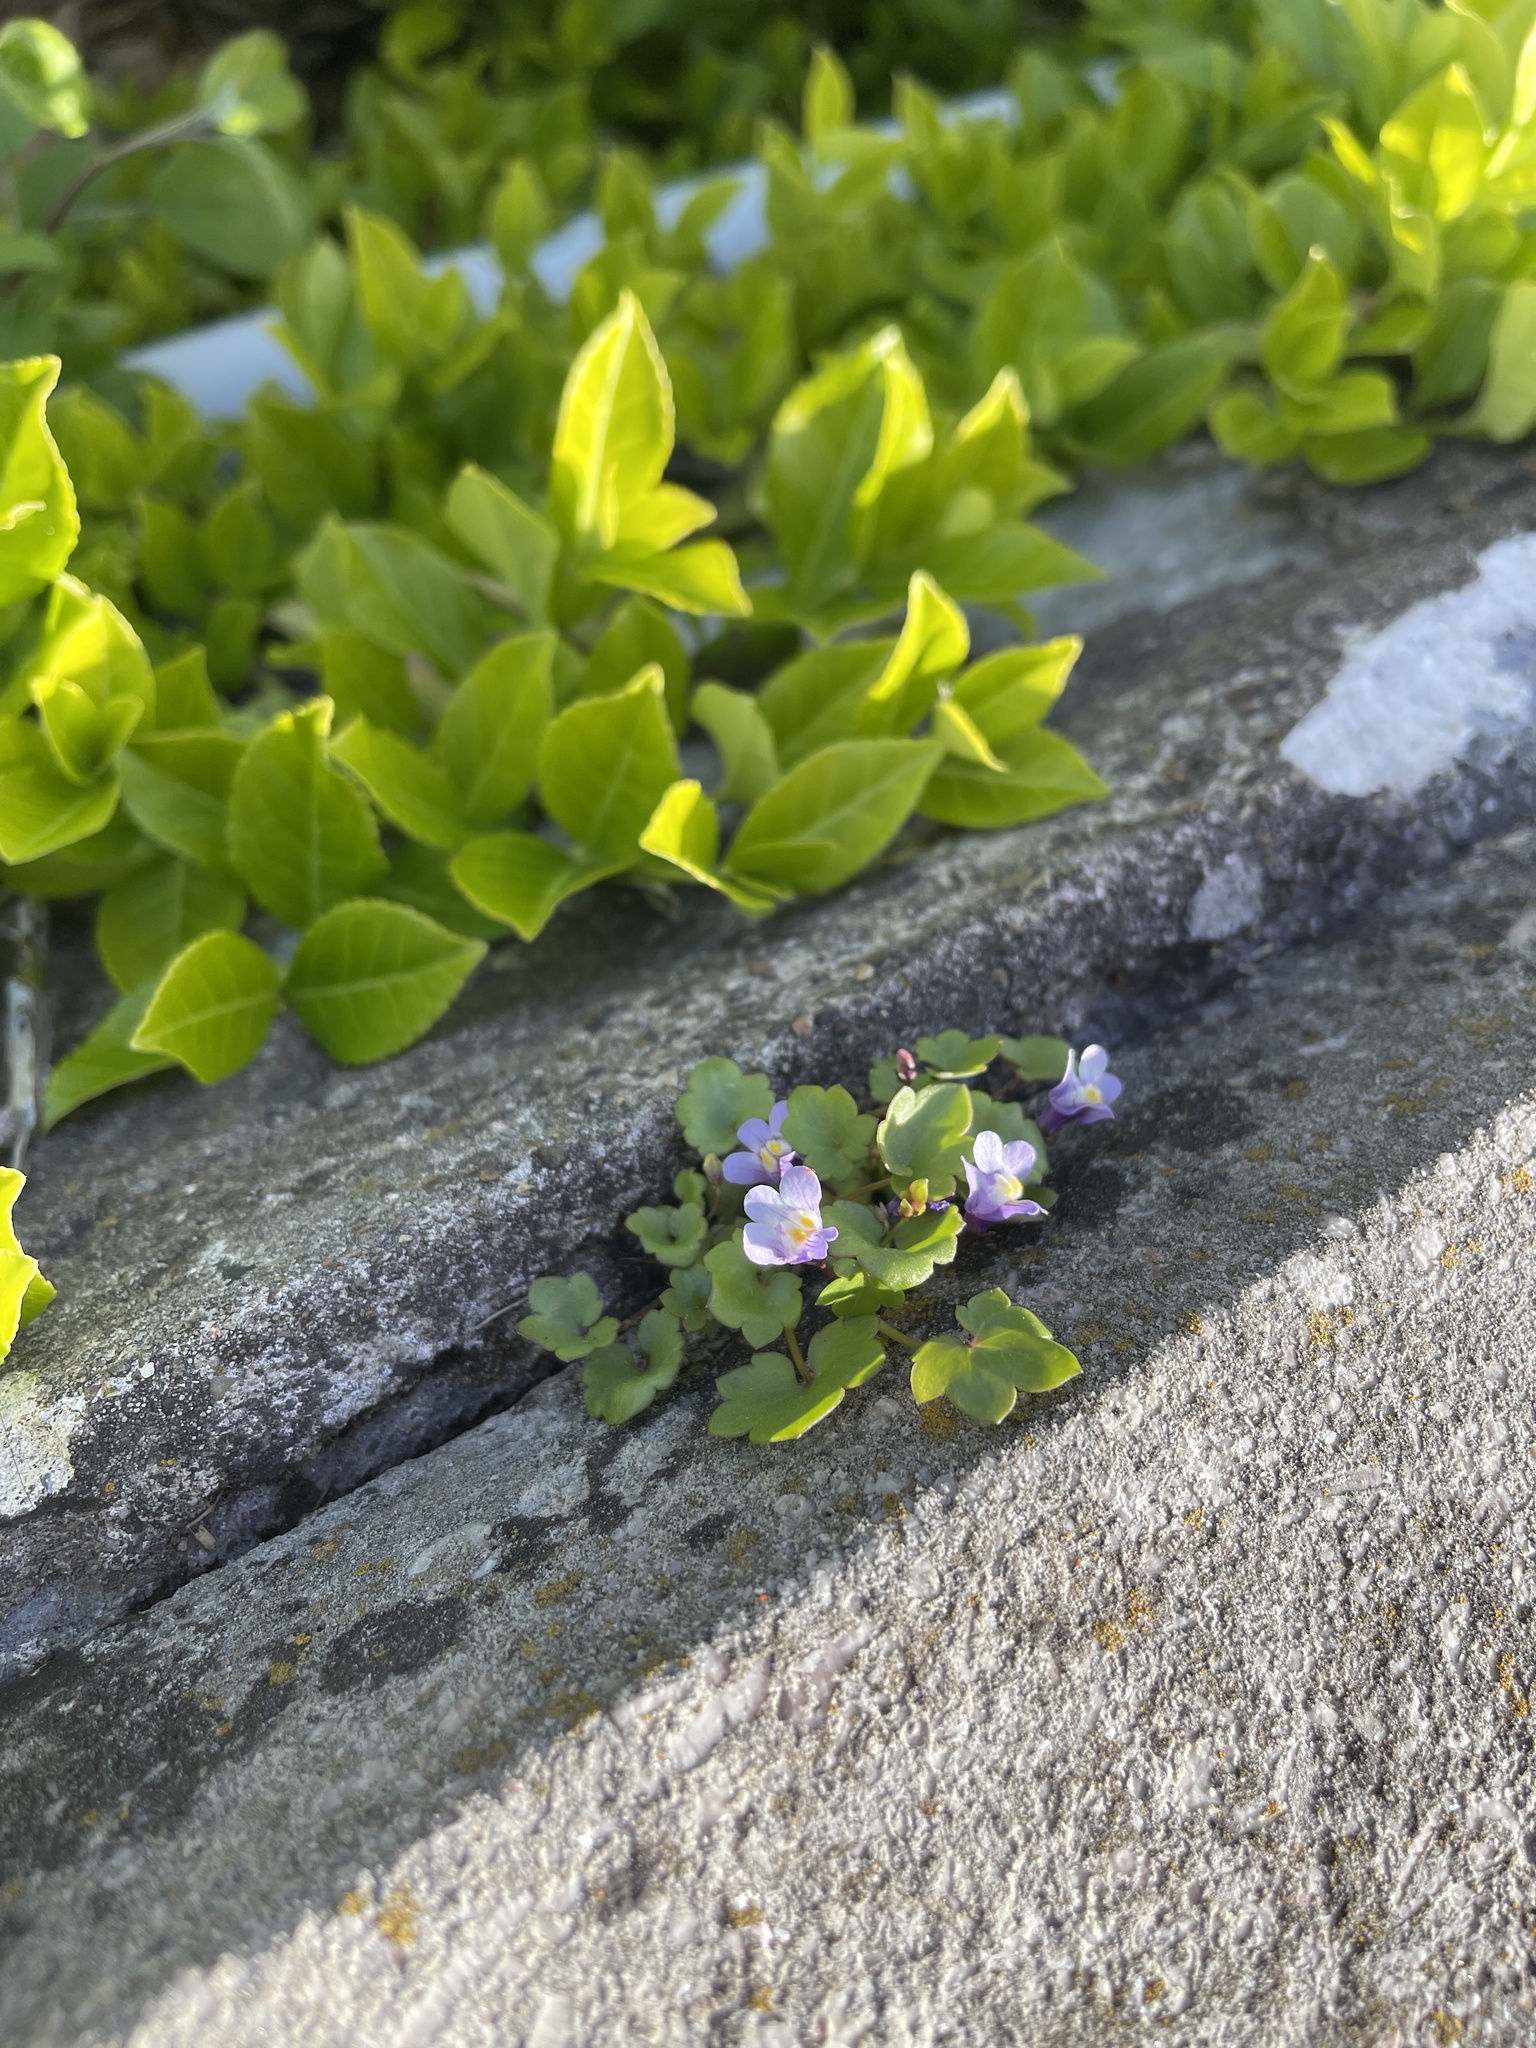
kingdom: Plantae
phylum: Tracheophyta
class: Magnoliopsida
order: Lamiales
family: Plantaginaceae
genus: Cymbalaria
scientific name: Cymbalaria muralis
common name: Ivy-leaved toadflax
